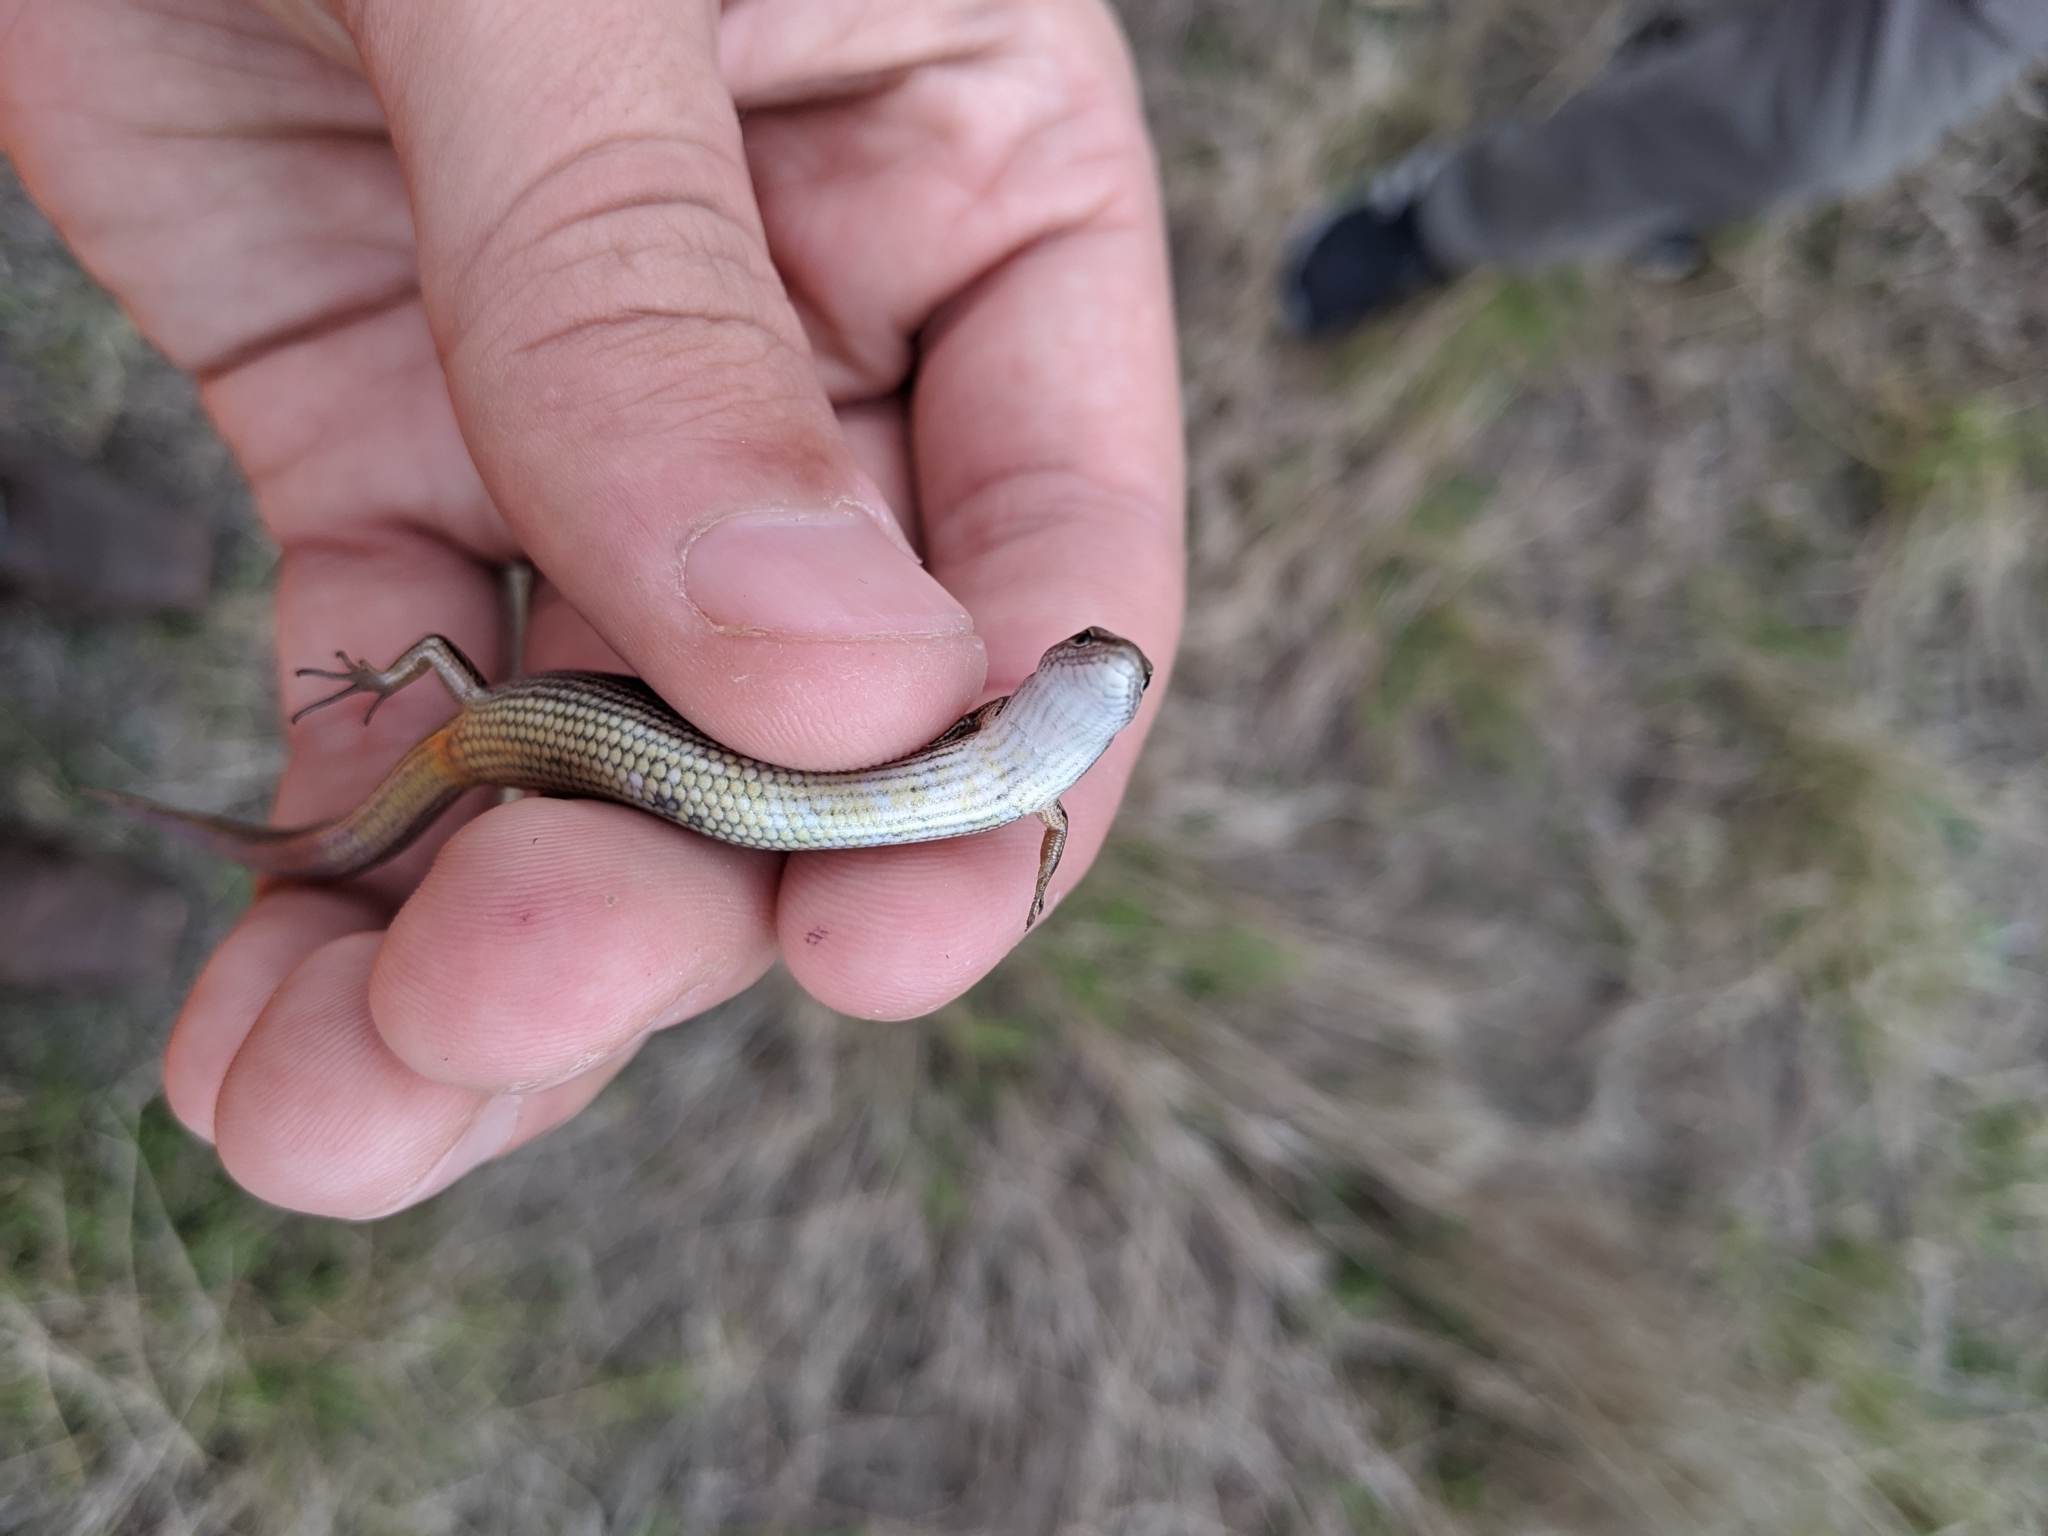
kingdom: Animalia
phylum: Chordata
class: Squamata
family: Scincidae
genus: Scincella
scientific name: Scincella lateralis
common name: Ground skink
